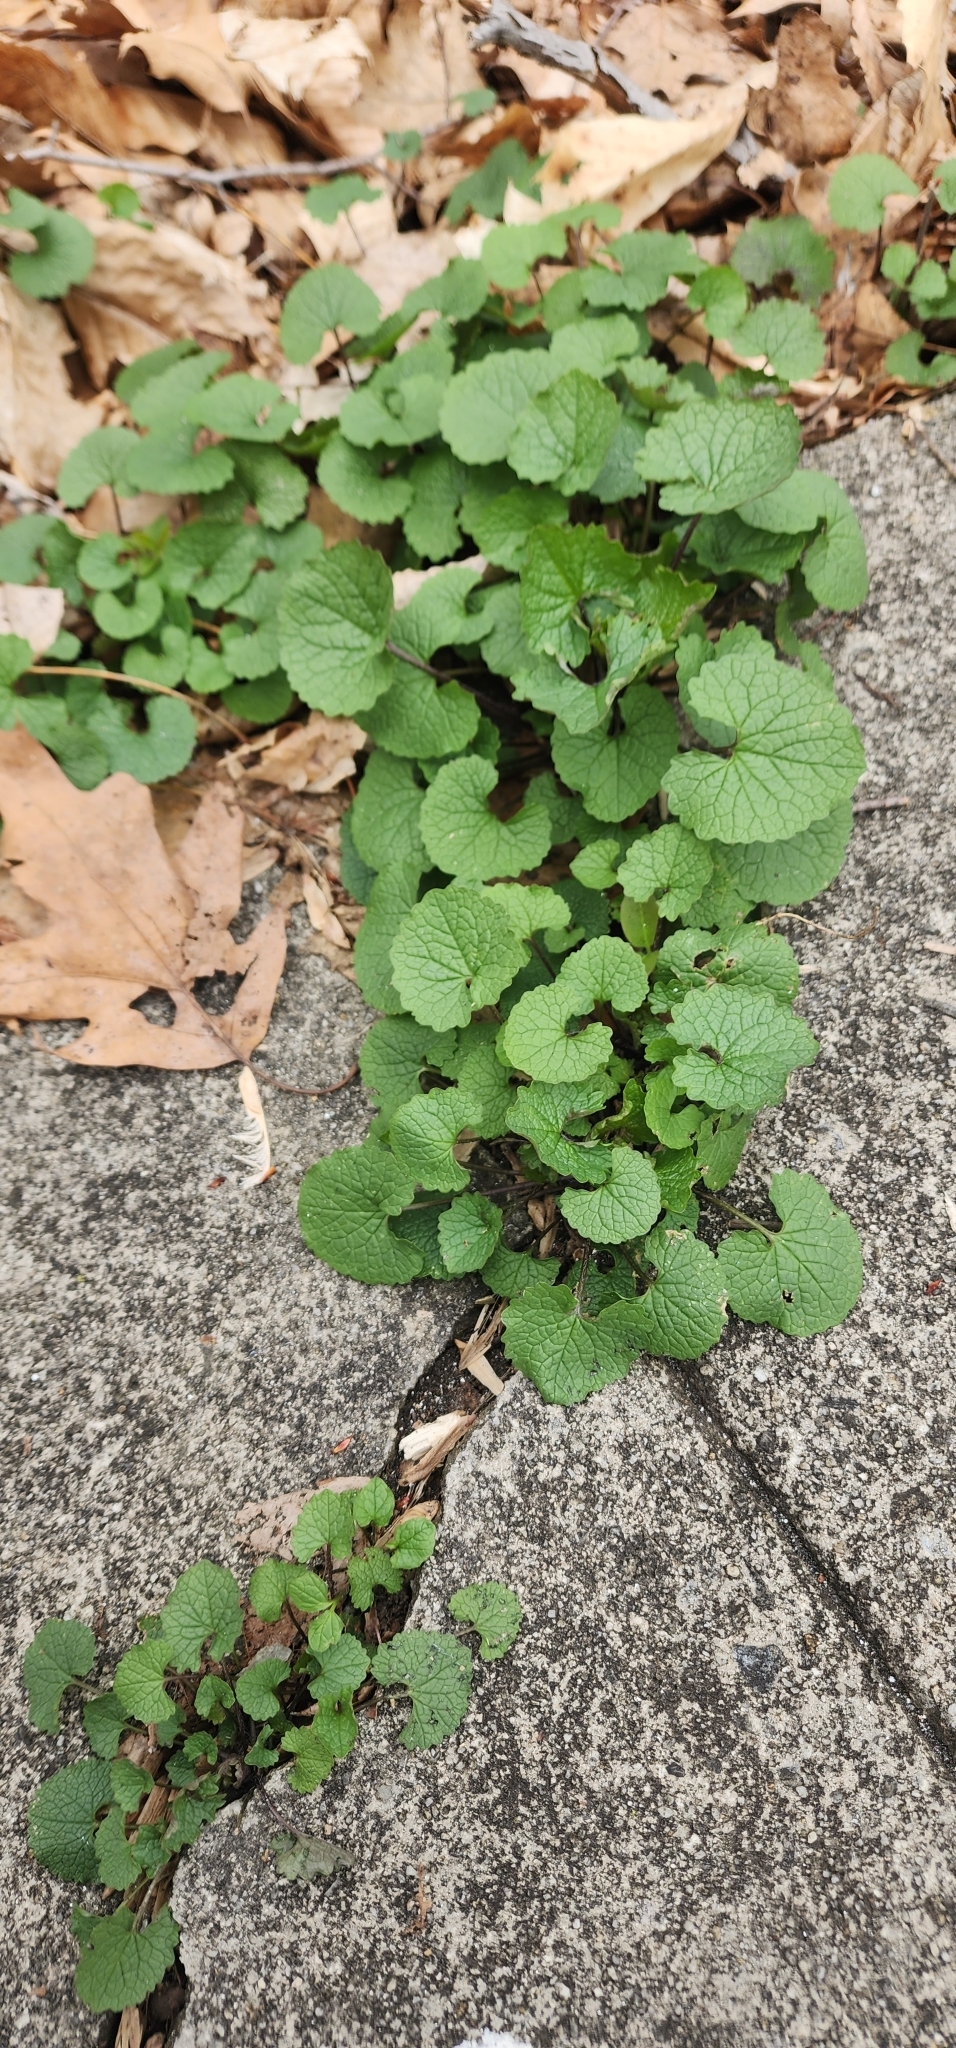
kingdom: Plantae
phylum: Tracheophyta
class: Magnoliopsida
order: Brassicales
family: Brassicaceae
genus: Alliaria
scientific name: Alliaria petiolata
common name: Garlic mustard
